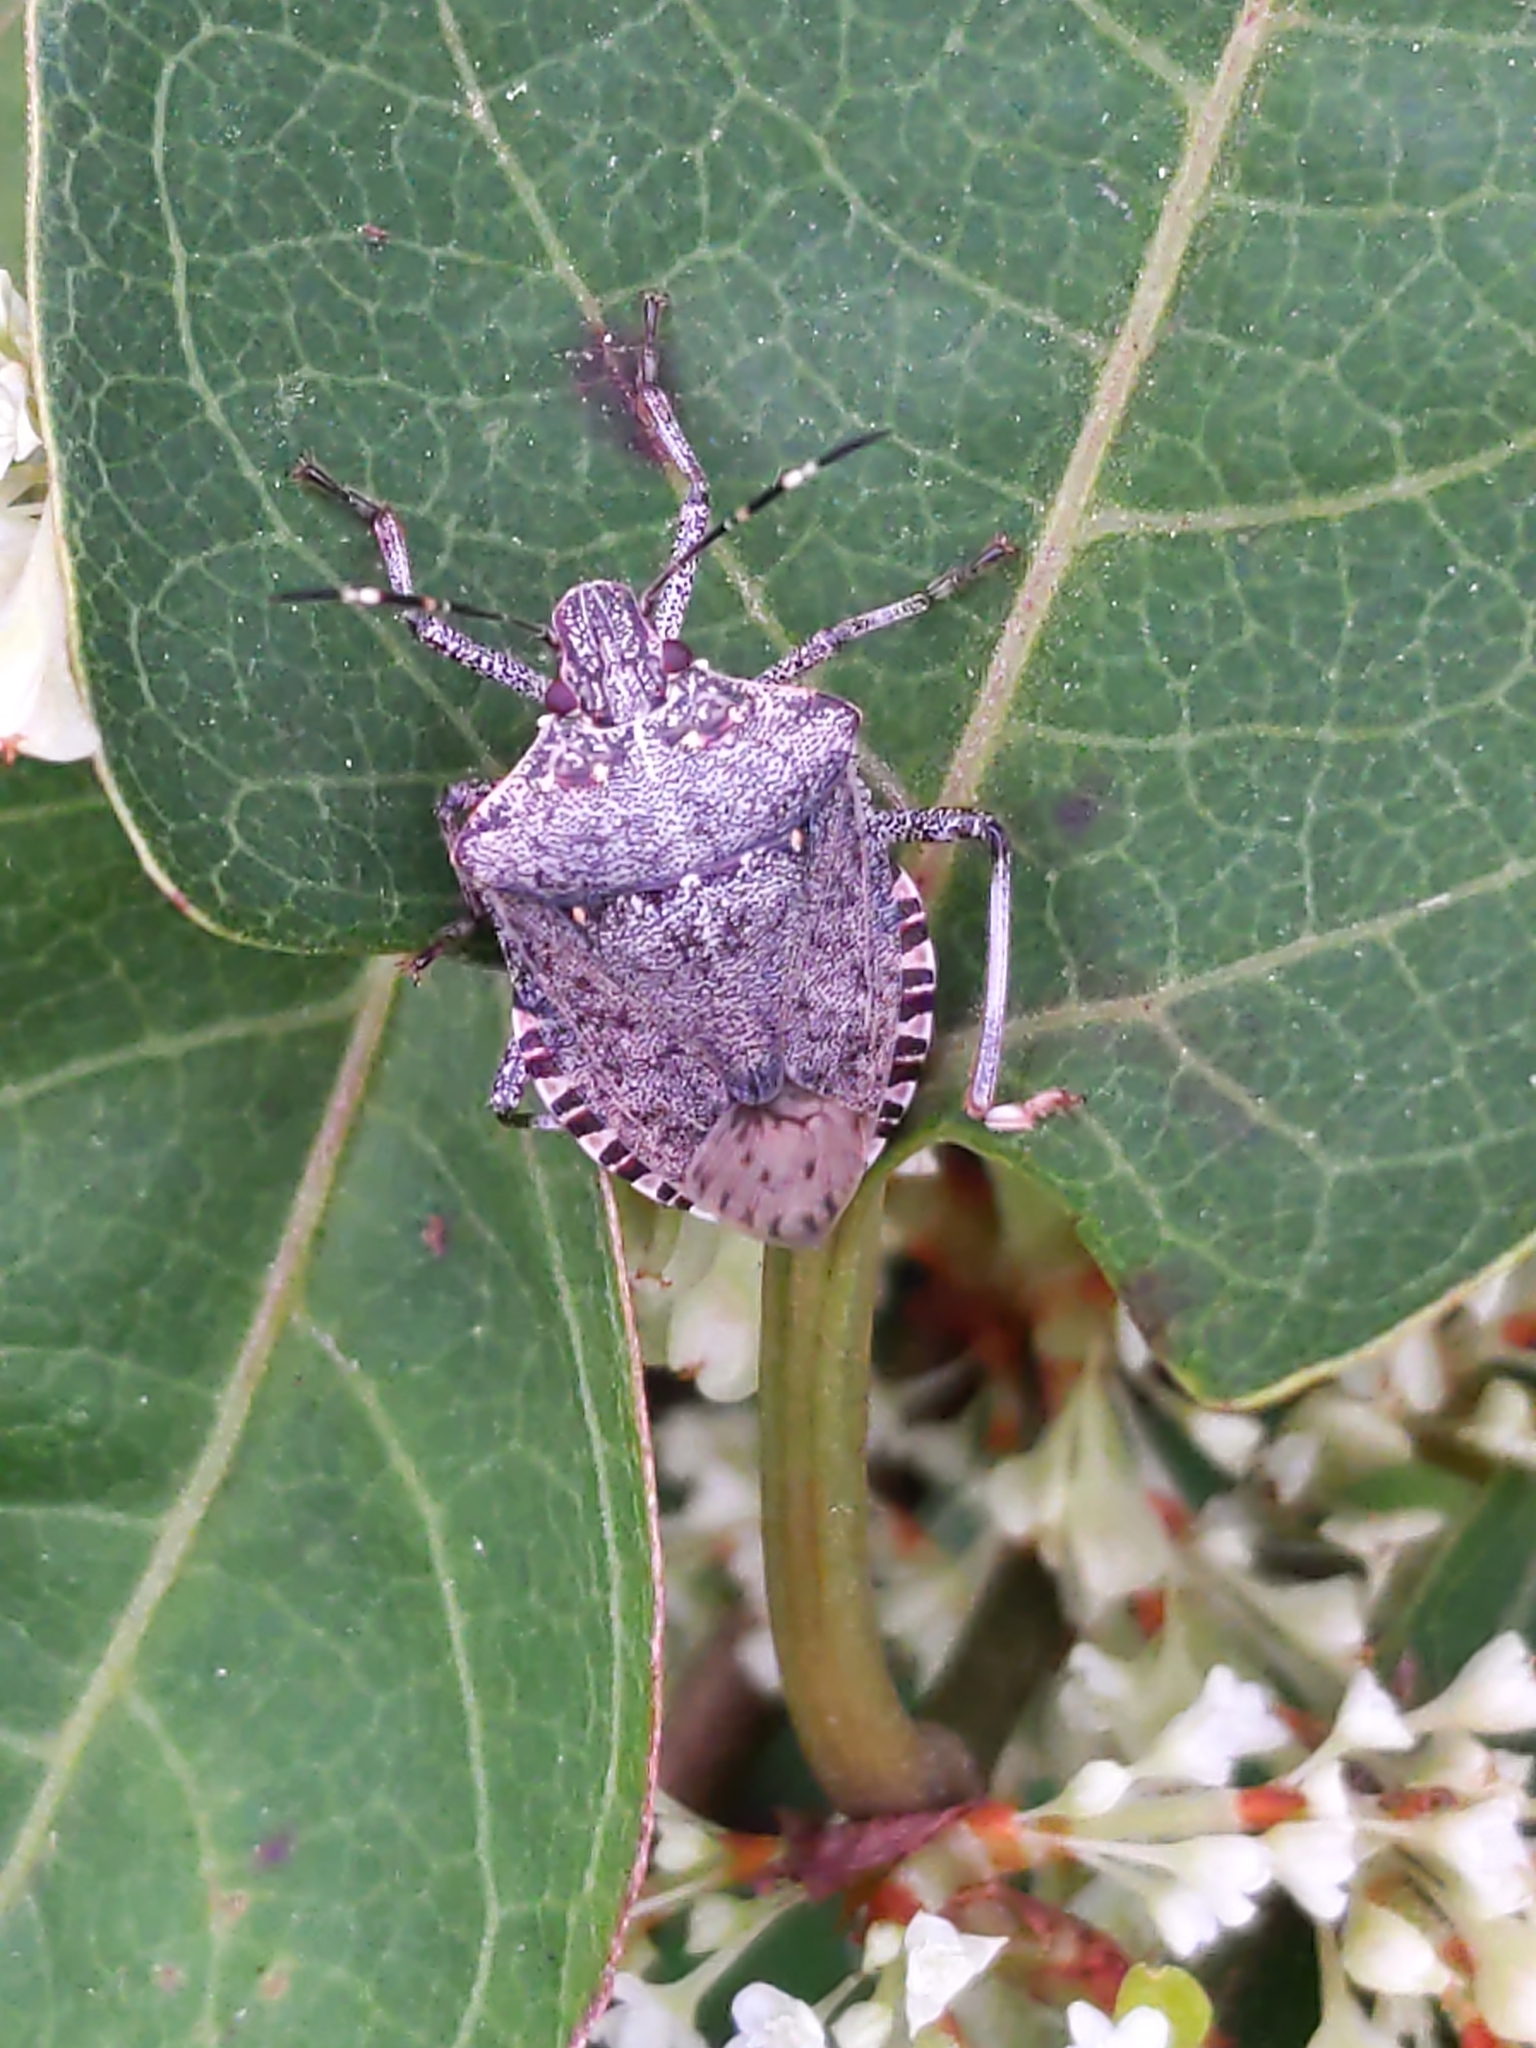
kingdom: Animalia
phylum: Arthropoda
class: Insecta
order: Hemiptera
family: Pentatomidae
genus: Halyomorpha
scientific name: Halyomorpha halys
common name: Brown marmorated stink bug
